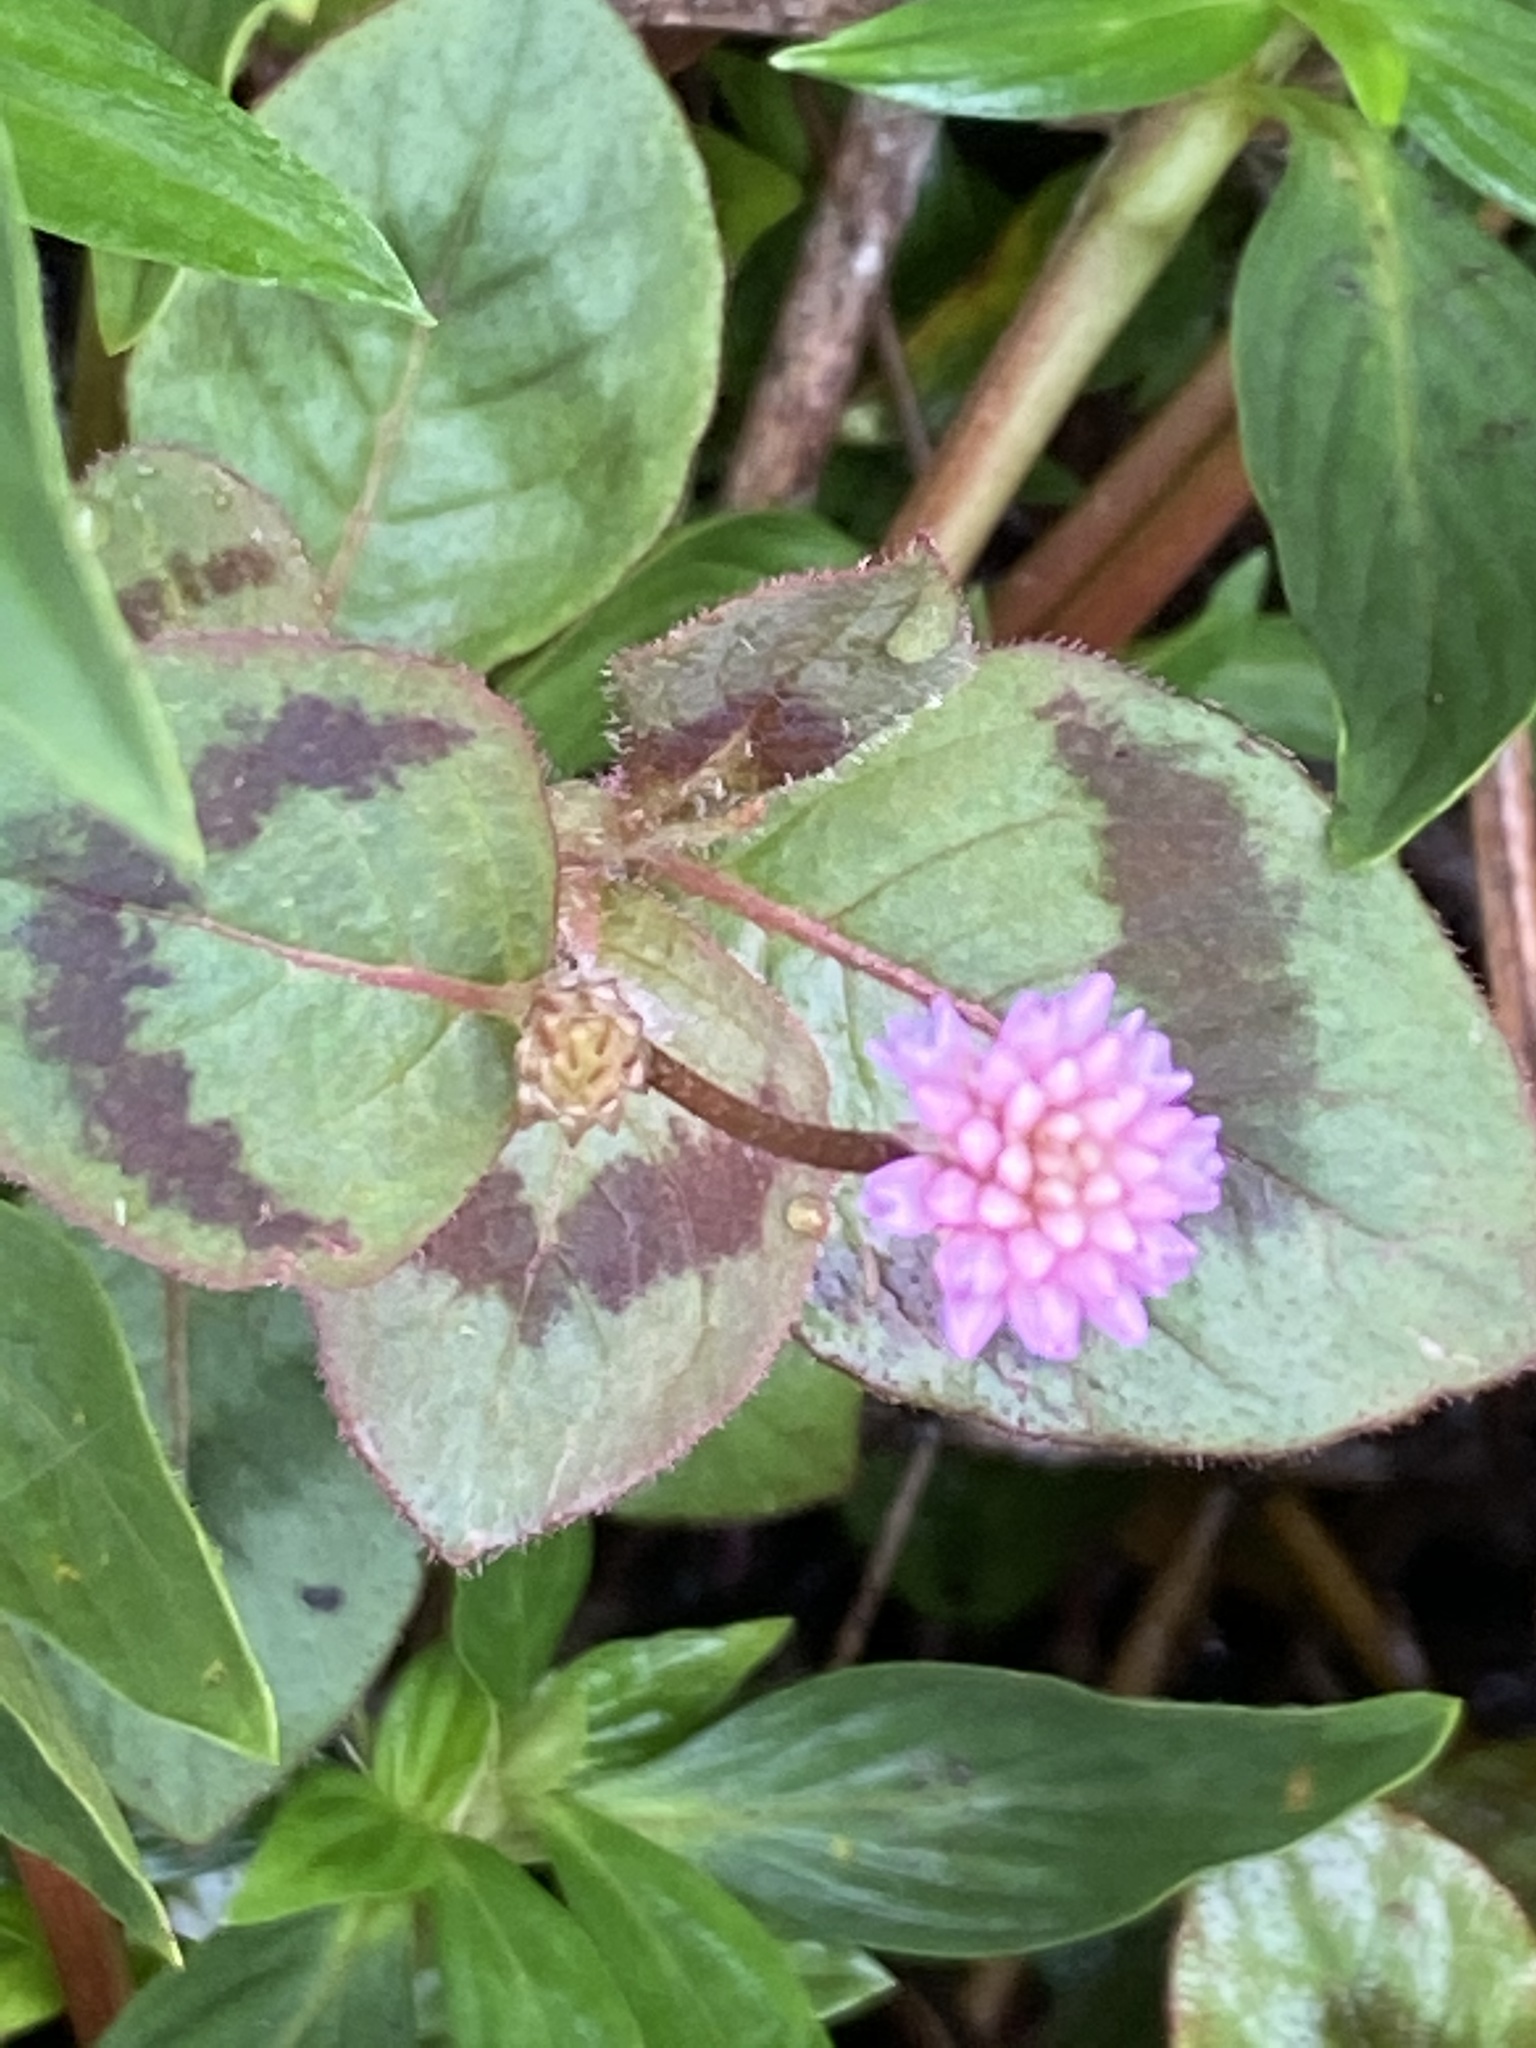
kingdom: Plantae
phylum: Tracheophyta
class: Magnoliopsida
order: Caryophyllales
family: Polygonaceae
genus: Persicaria
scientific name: Persicaria capitata
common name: Pinkhead smartweed
